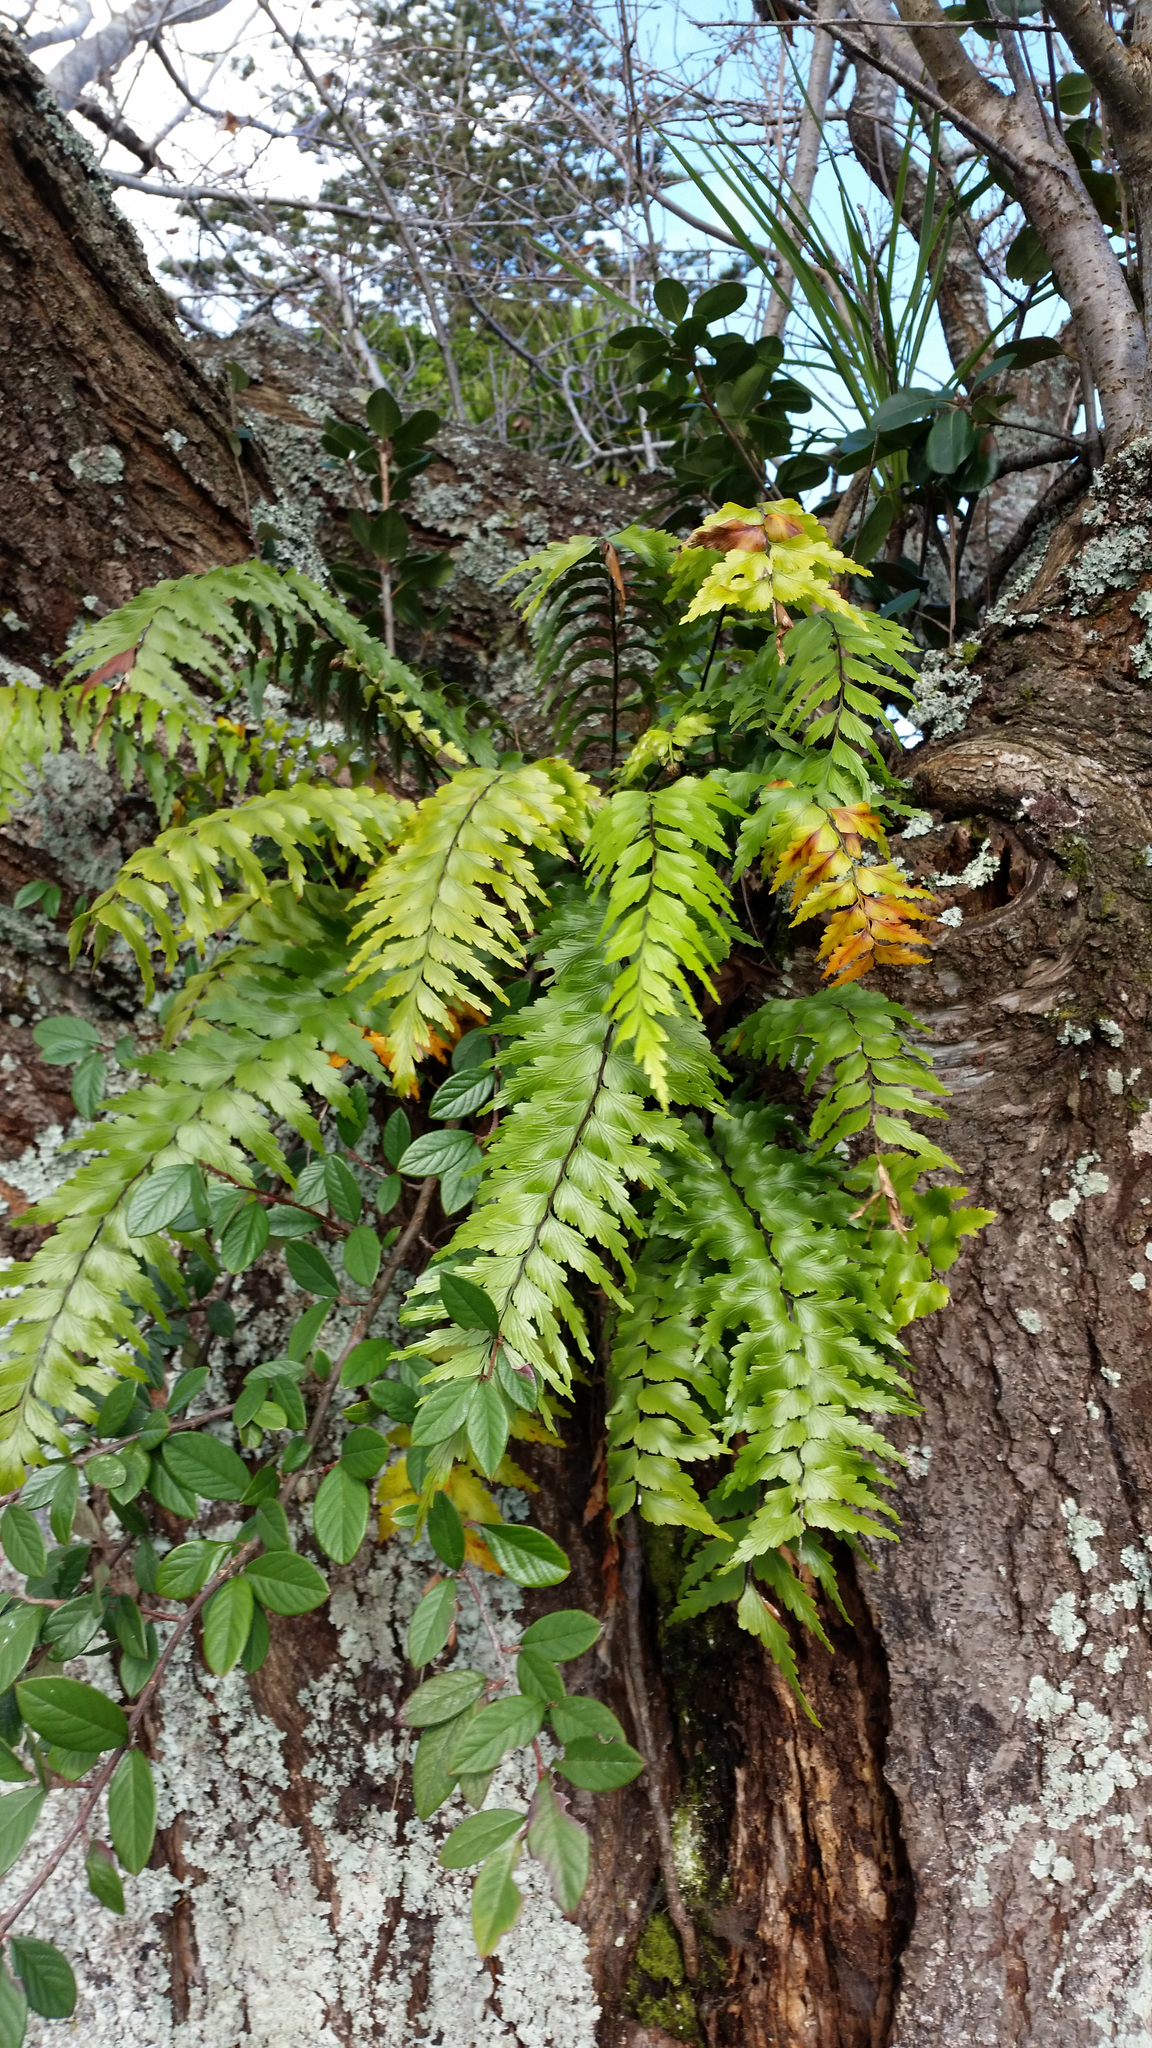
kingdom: Plantae
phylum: Tracheophyta
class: Polypodiopsida
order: Polypodiales
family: Aspleniaceae
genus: Asplenium
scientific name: Asplenium polyodon
